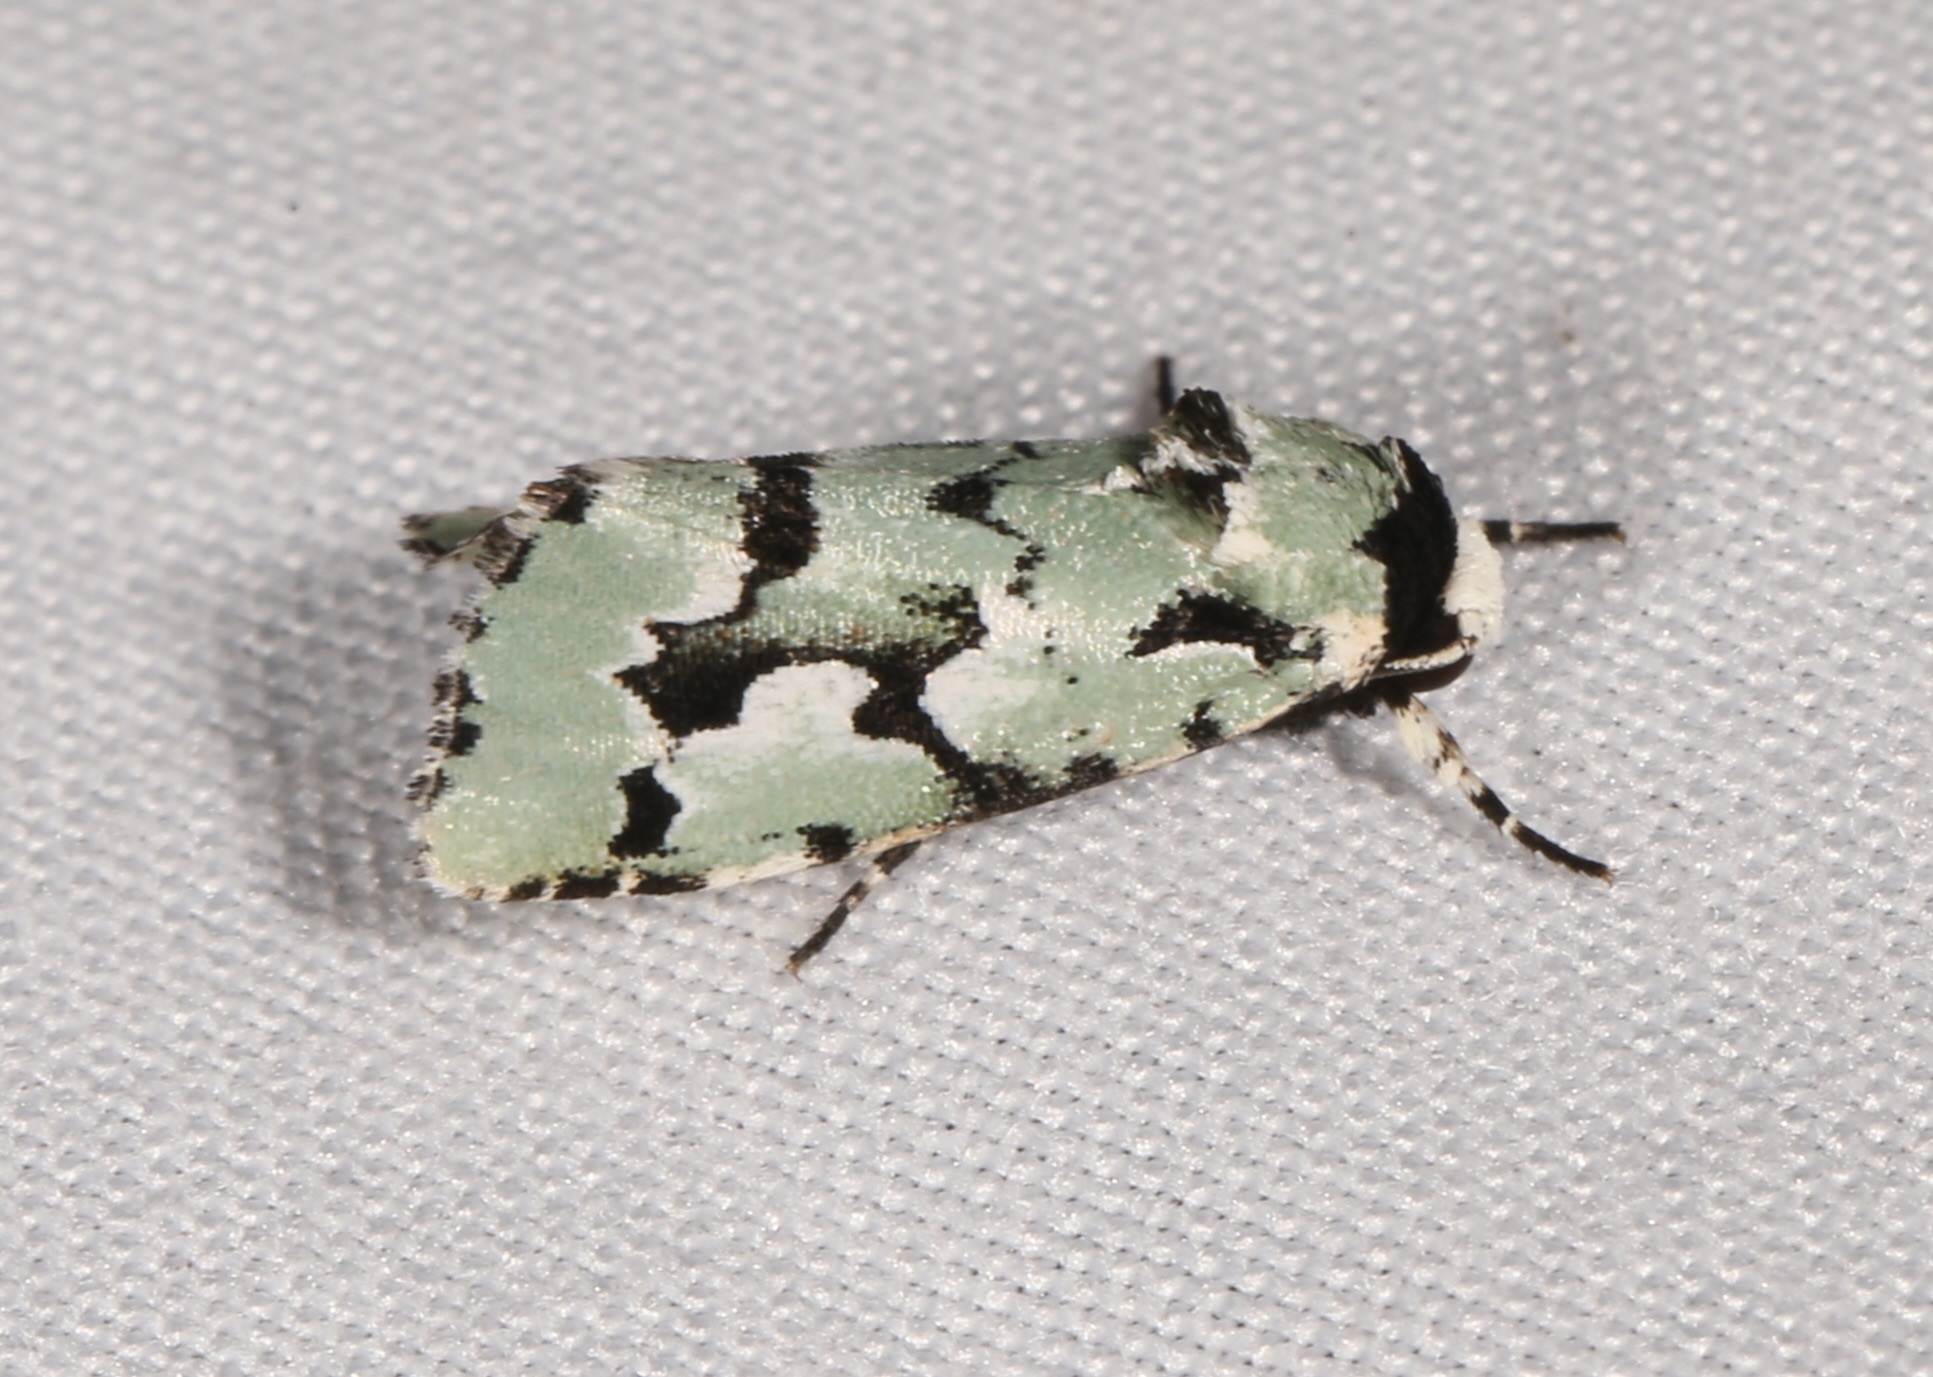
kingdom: Animalia
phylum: Arthropoda
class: Insecta
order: Lepidoptera
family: Noctuidae
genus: Emarginea
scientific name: Emarginea dulcinea
